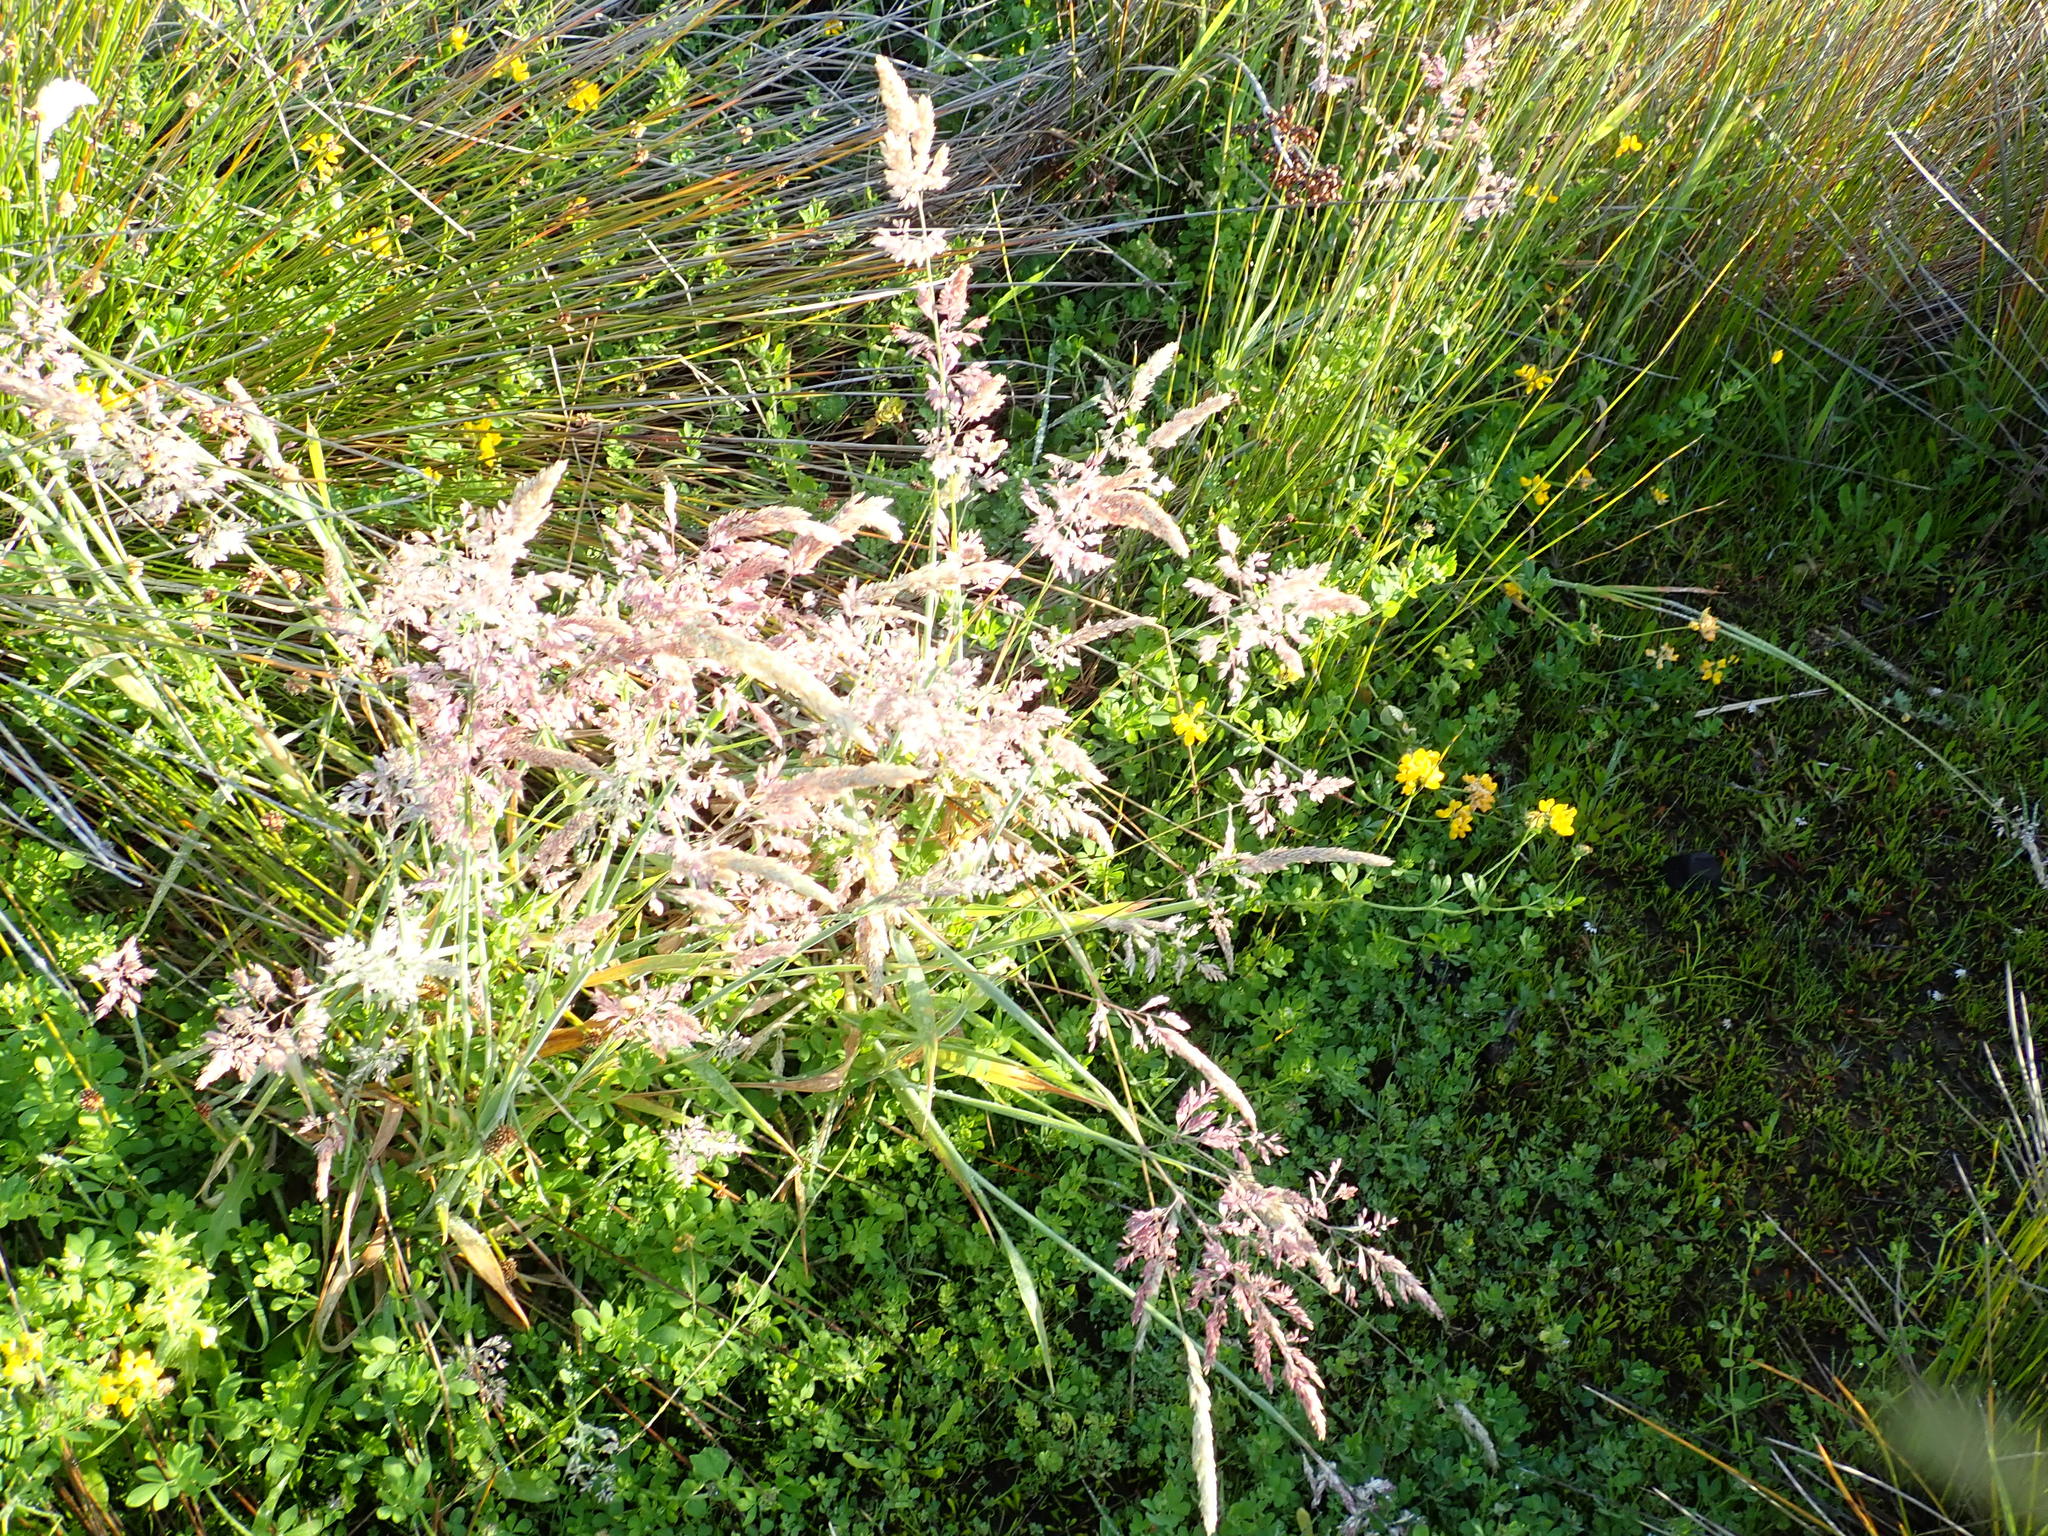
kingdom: Plantae
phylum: Tracheophyta
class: Liliopsida
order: Poales
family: Poaceae
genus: Holcus
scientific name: Holcus lanatus
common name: Yorkshire-fog
